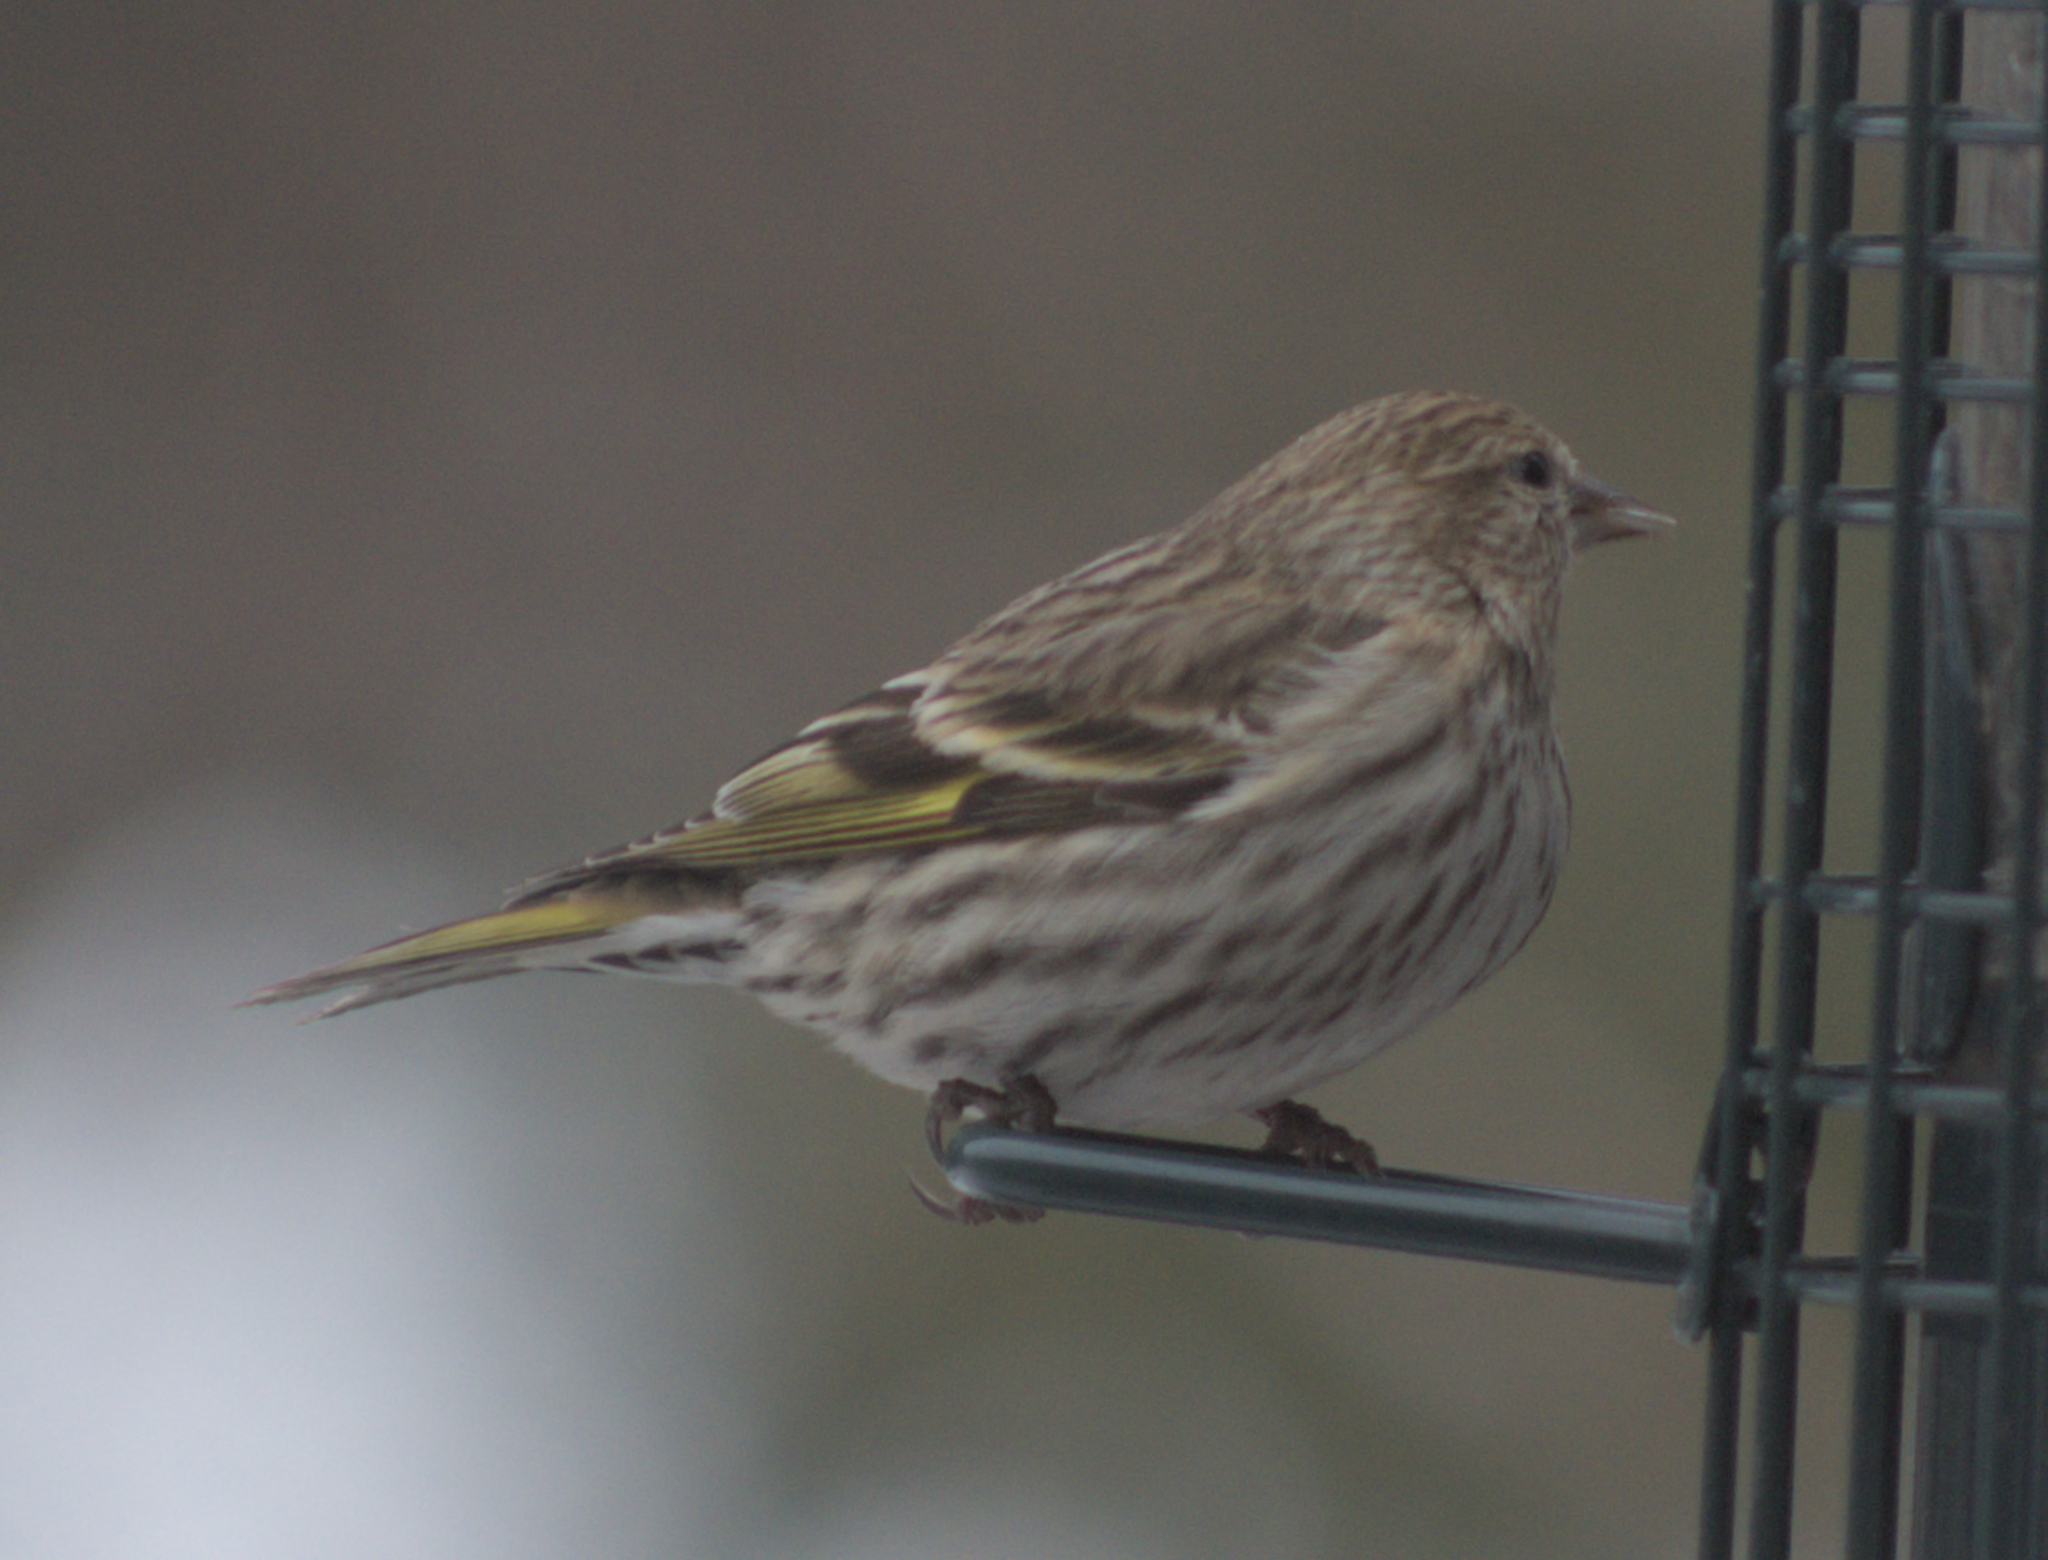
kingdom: Animalia
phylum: Chordata
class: Aves
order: Passeriformes
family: Fringillidae
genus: Spinus
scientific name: Spinus pinus
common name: Pine siskin
